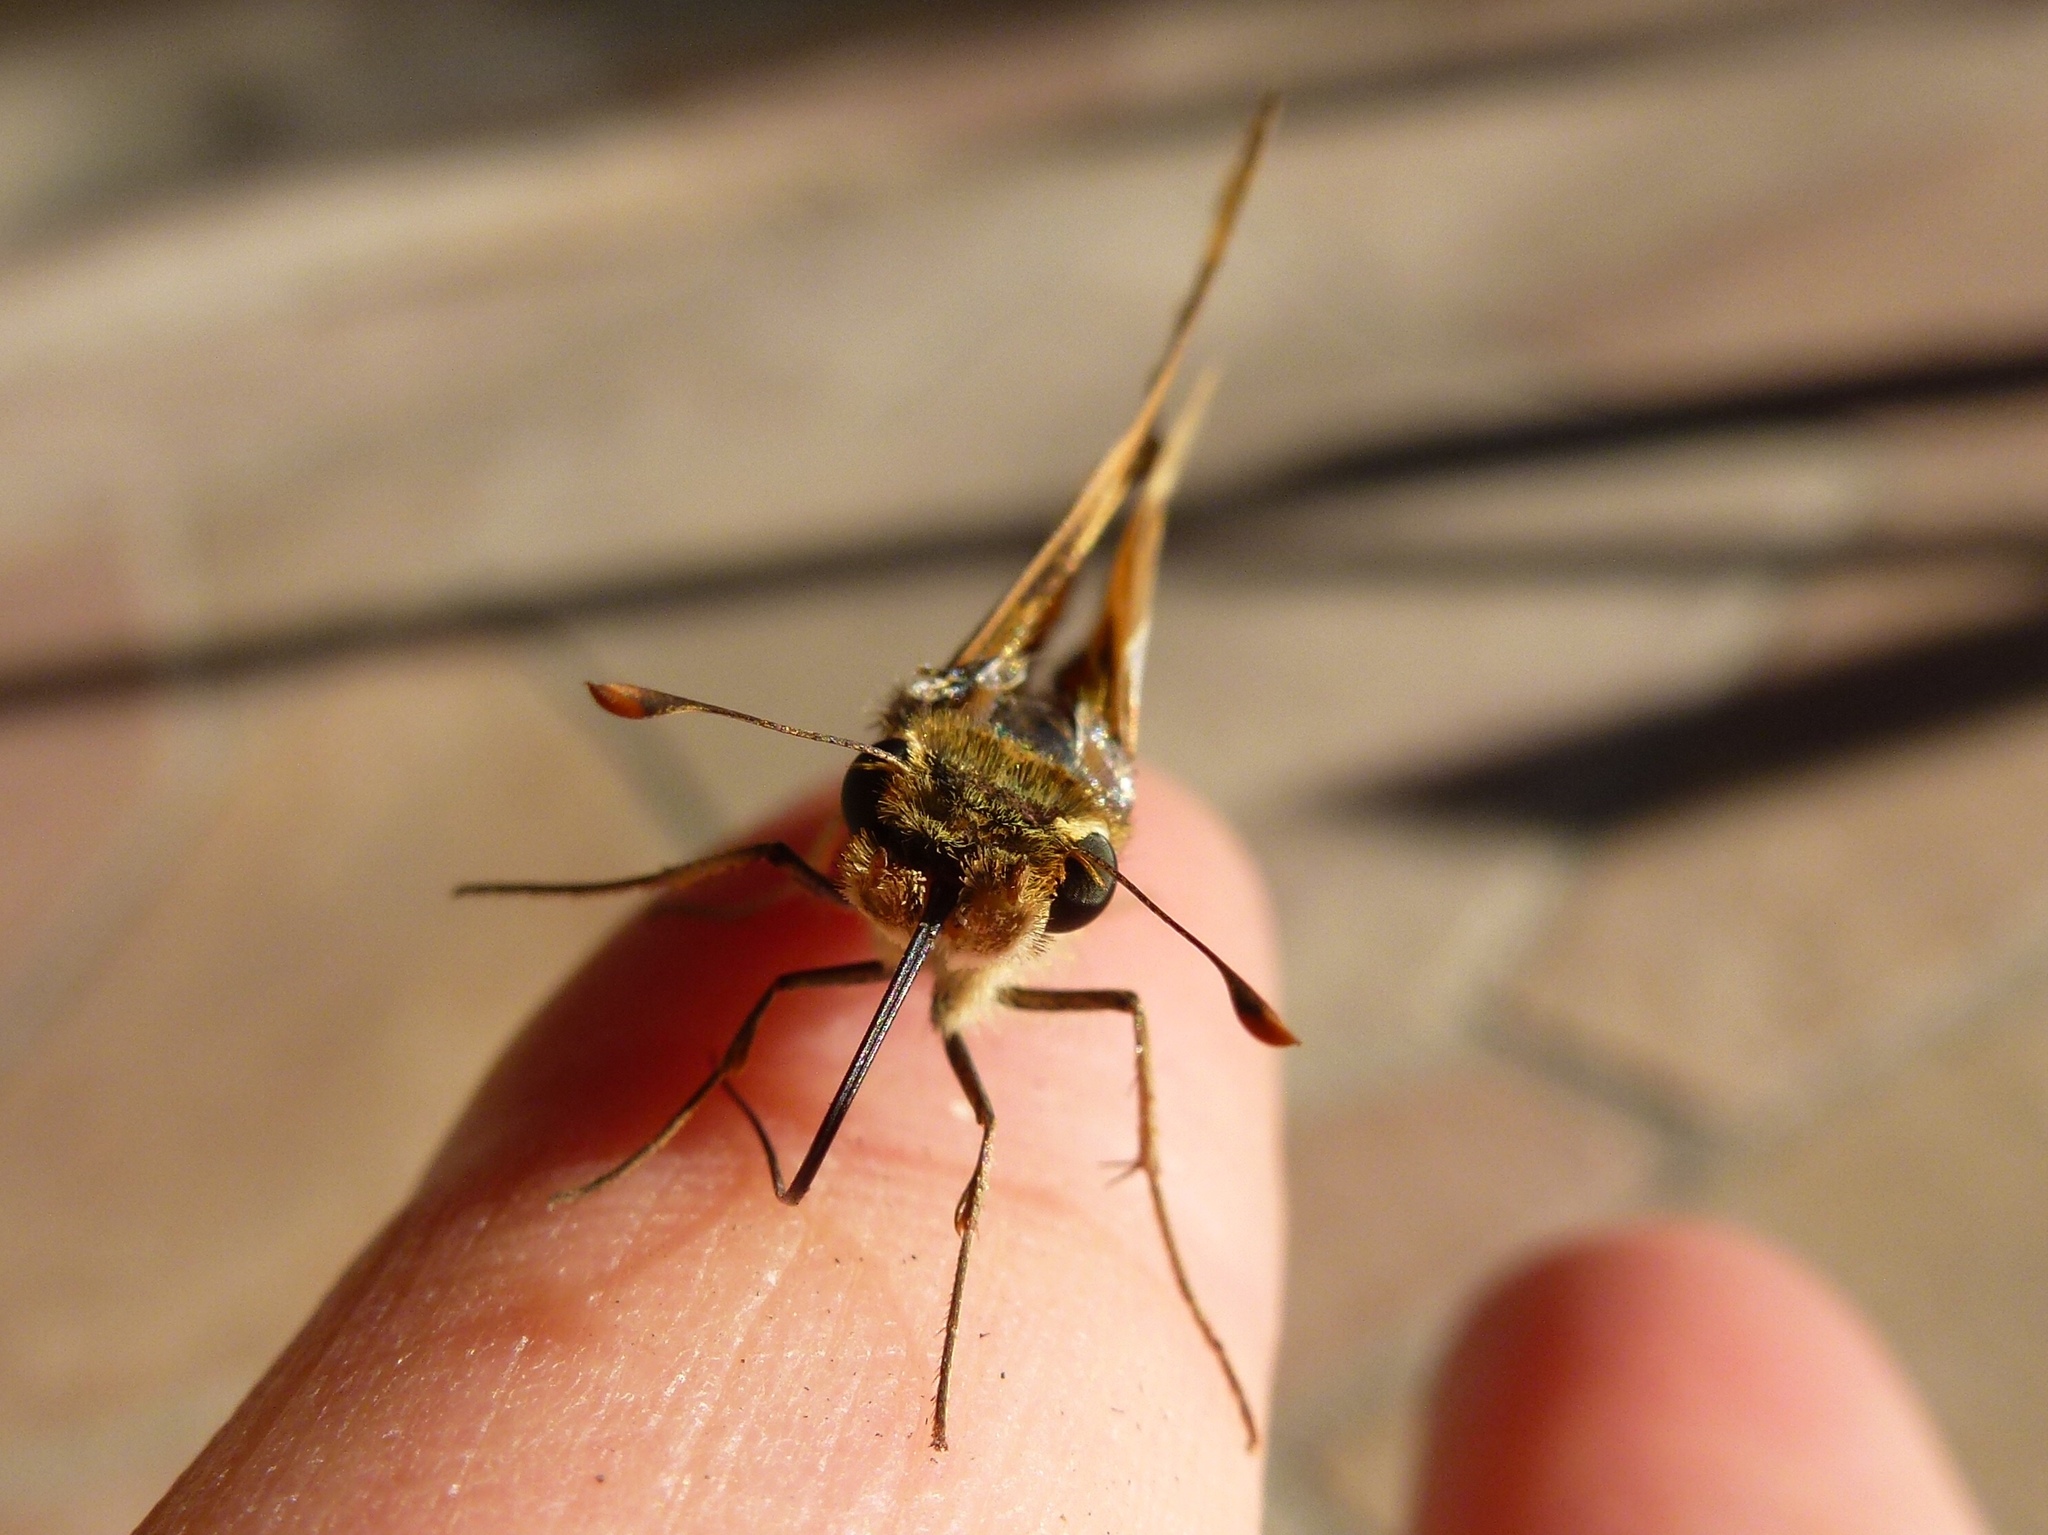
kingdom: Animalia
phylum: Arthropoda
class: Insecta
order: Lepidoptera
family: Hesperiidae
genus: Hylephila
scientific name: Hylephila phyleus
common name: Fiery skipper
